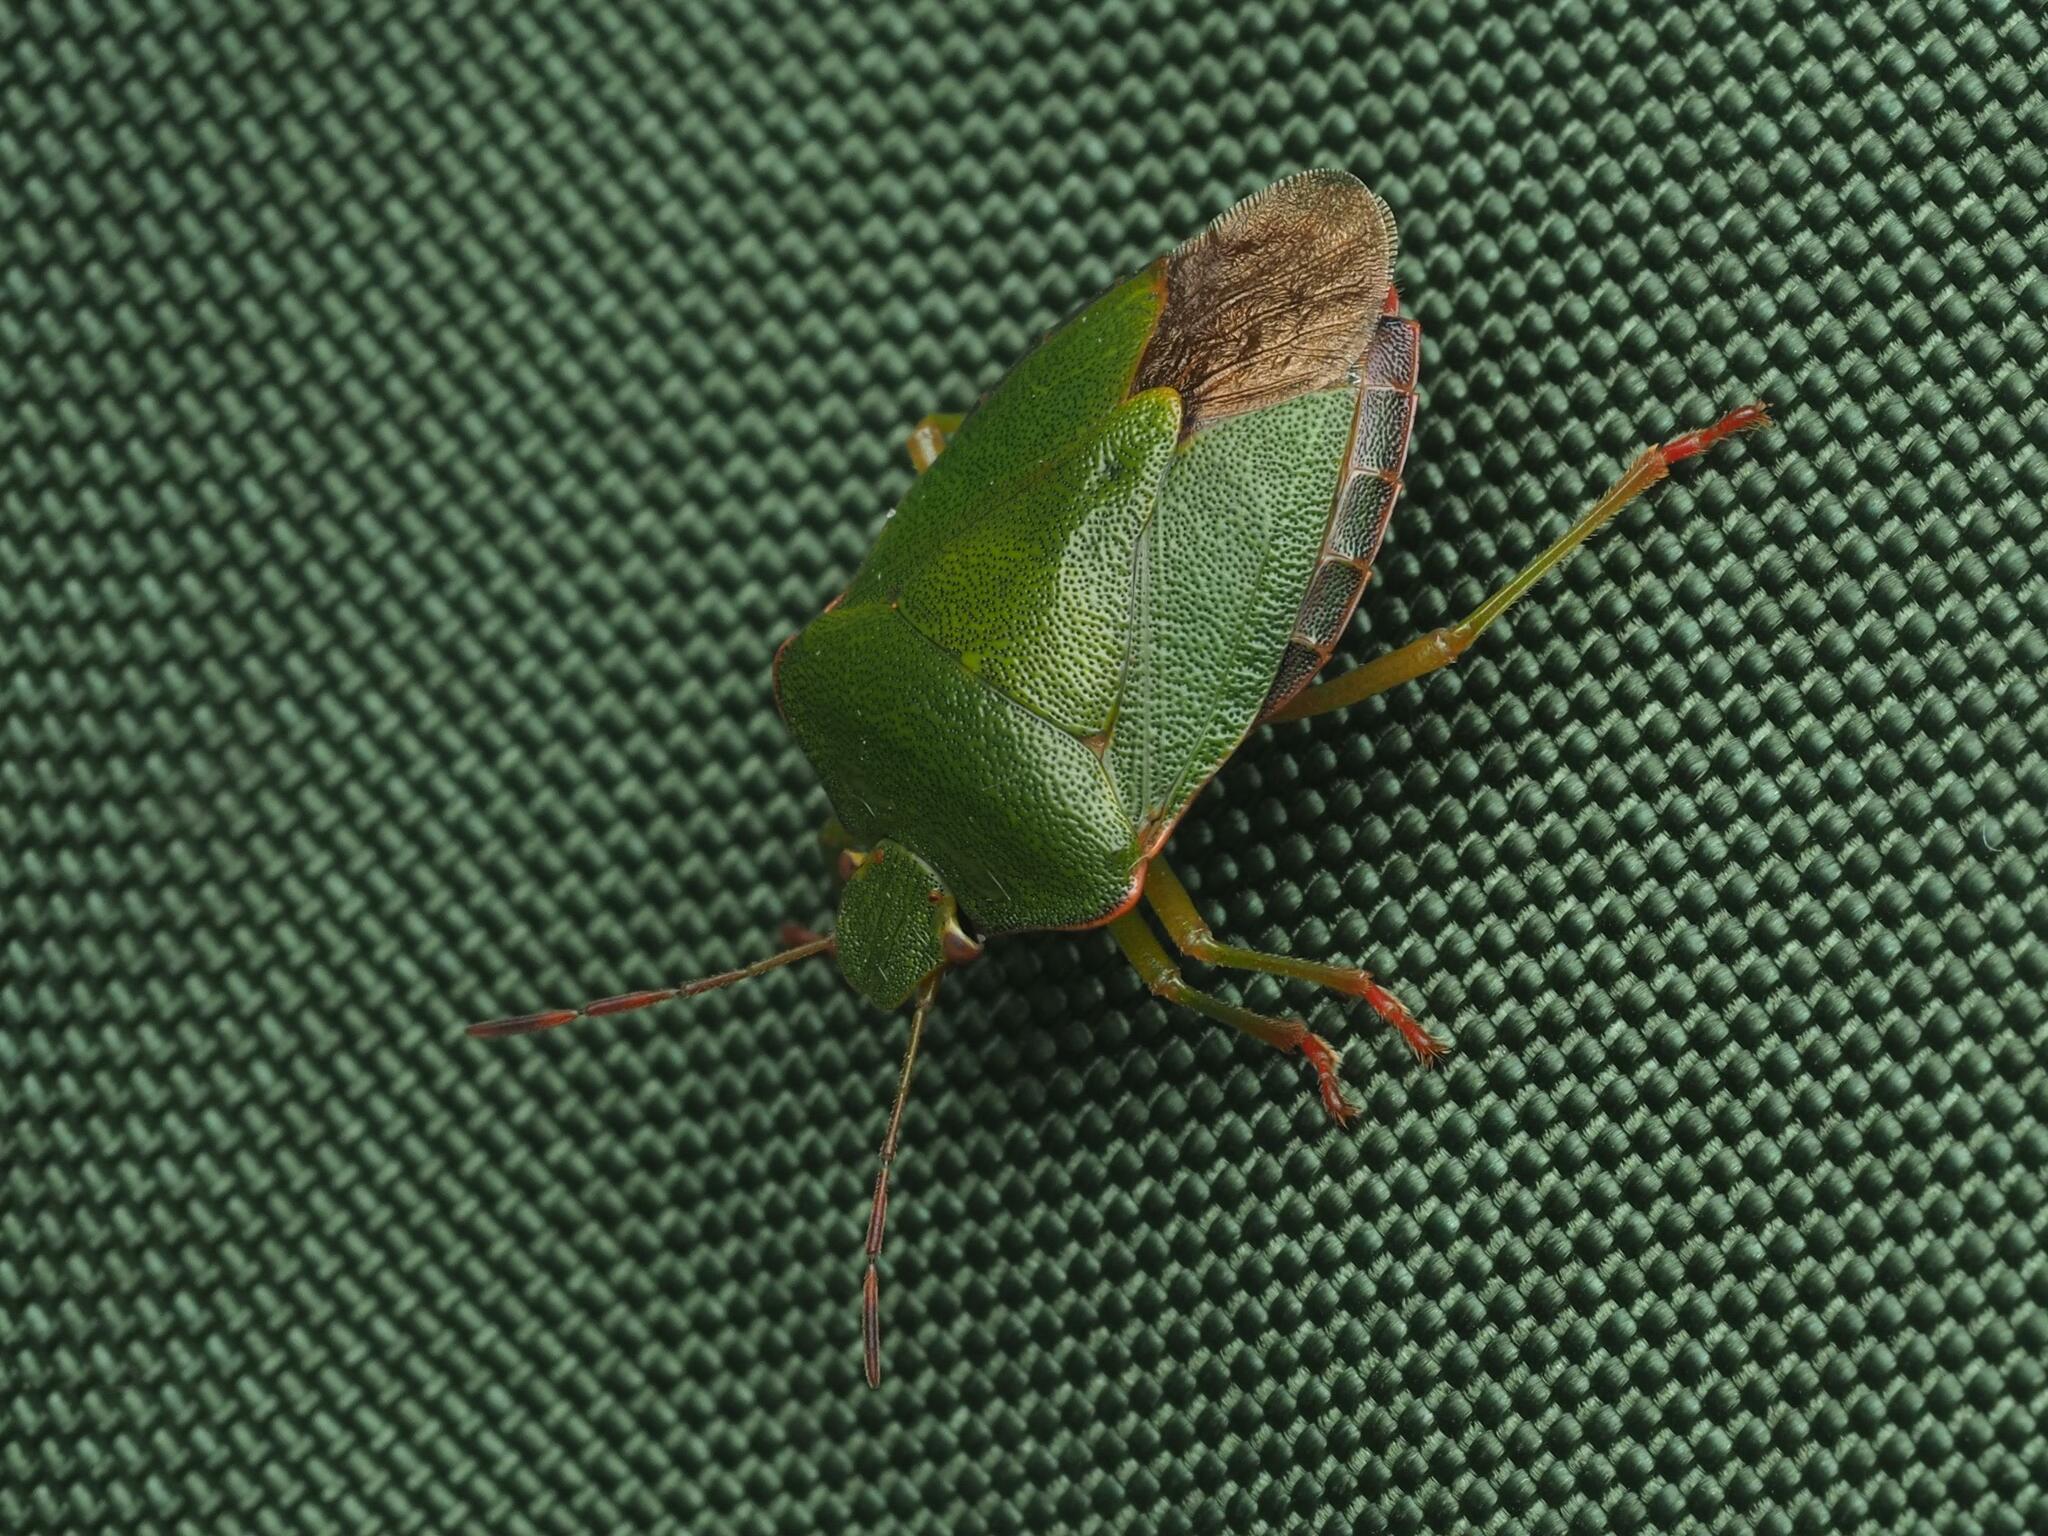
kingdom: Animalia
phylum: Arthropoda
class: Insecta
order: Hemiptera
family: Pentatomidae
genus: Palomena
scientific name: Palomena prasina
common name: Green shieldbug
